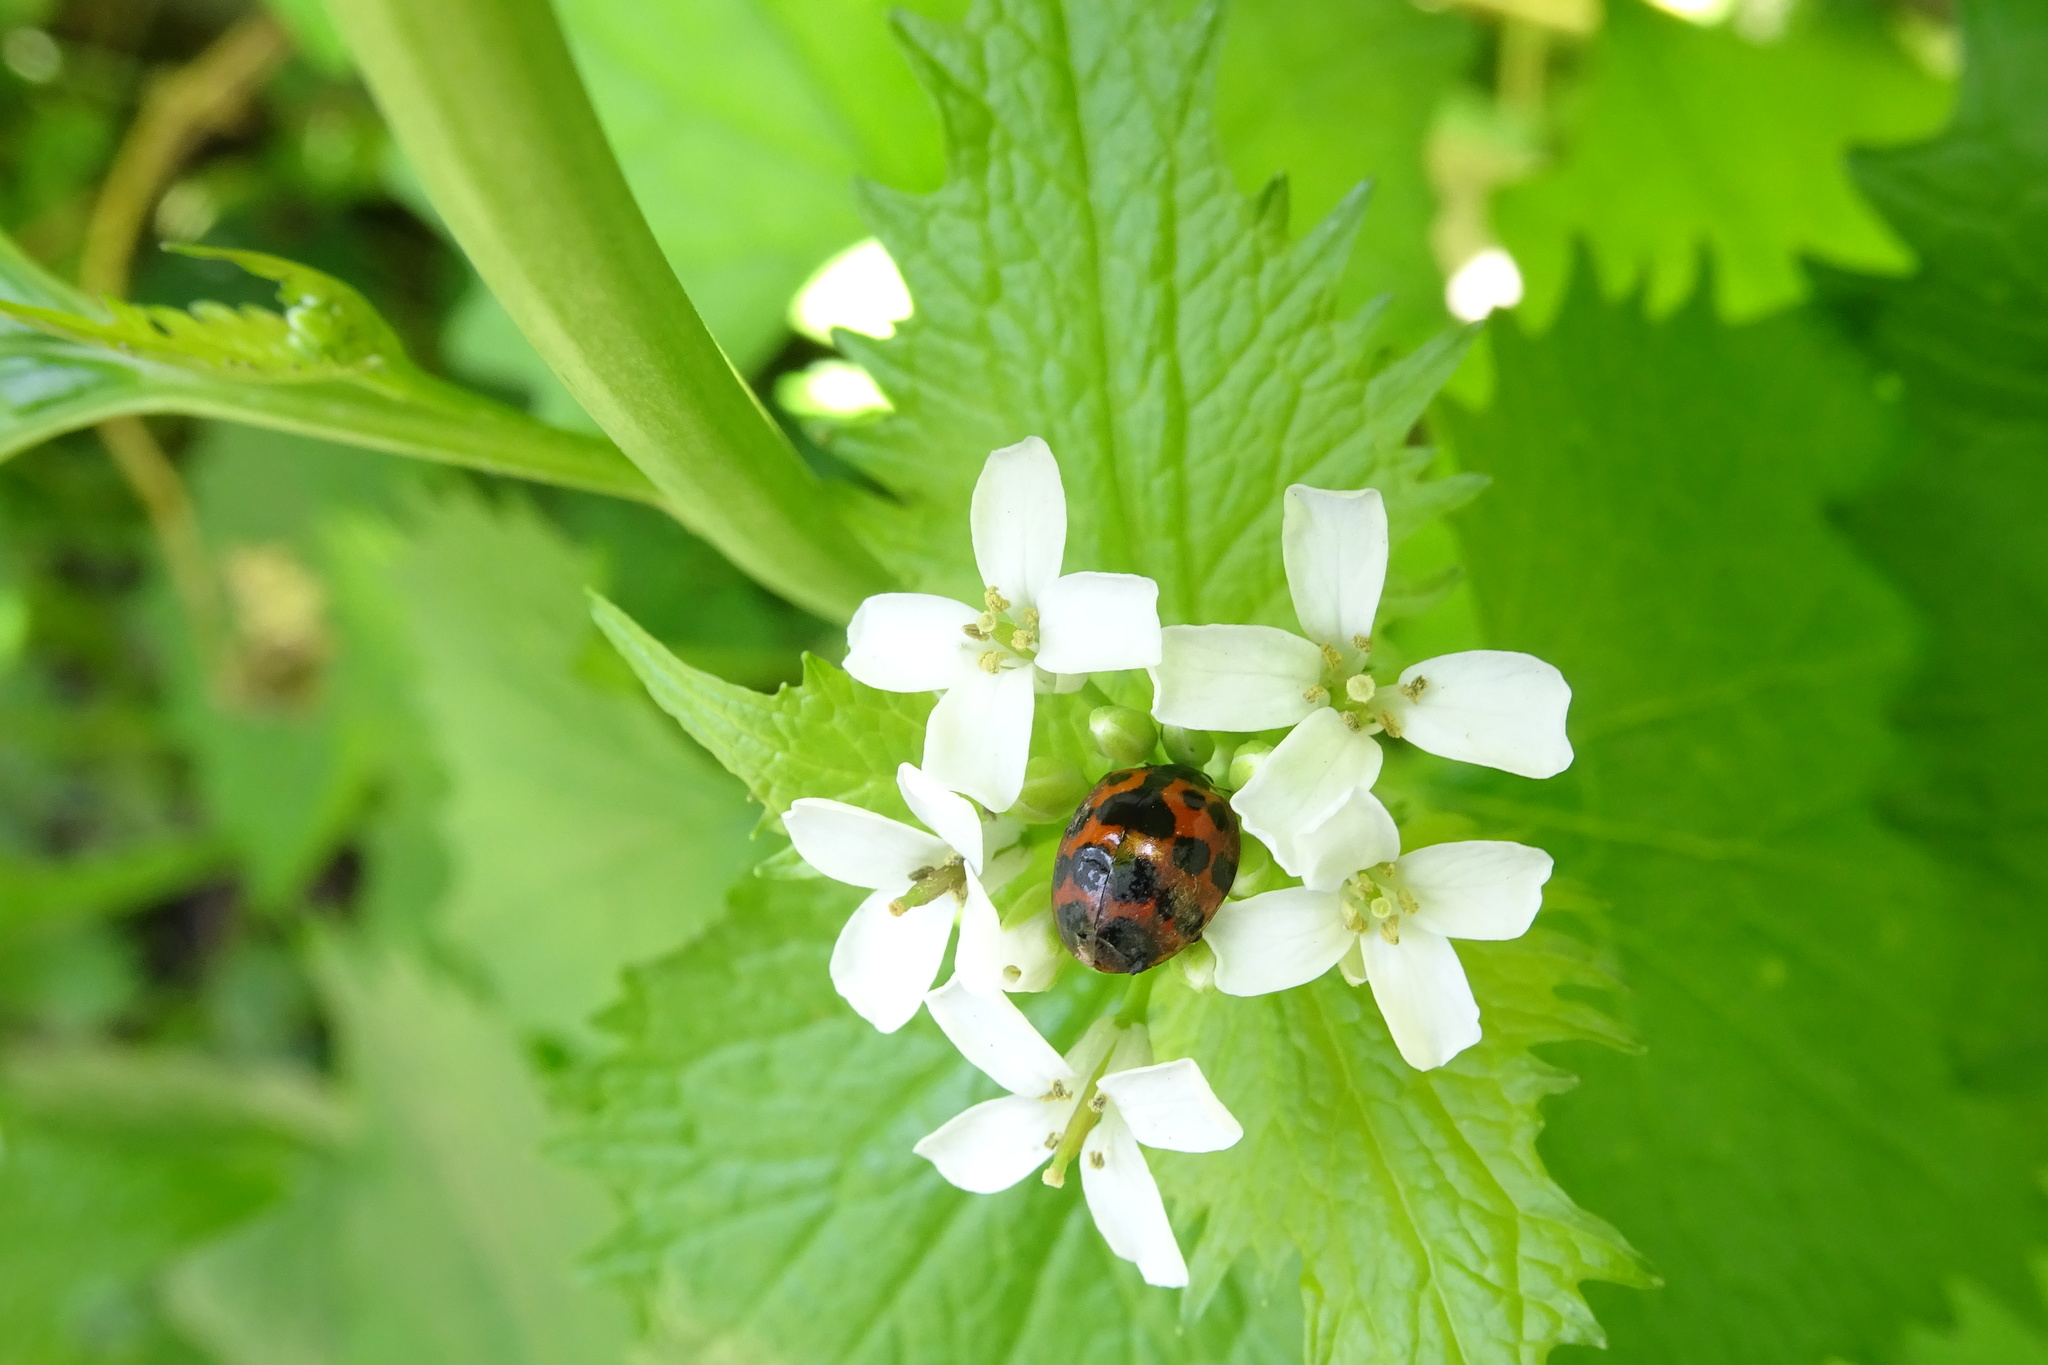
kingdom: Animalia
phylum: Arthropoda
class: Insecta
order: Coleoptera
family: Coccinellidae
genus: Harmonia
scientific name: Harmonia axyridis
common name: Harlequin ladybird
